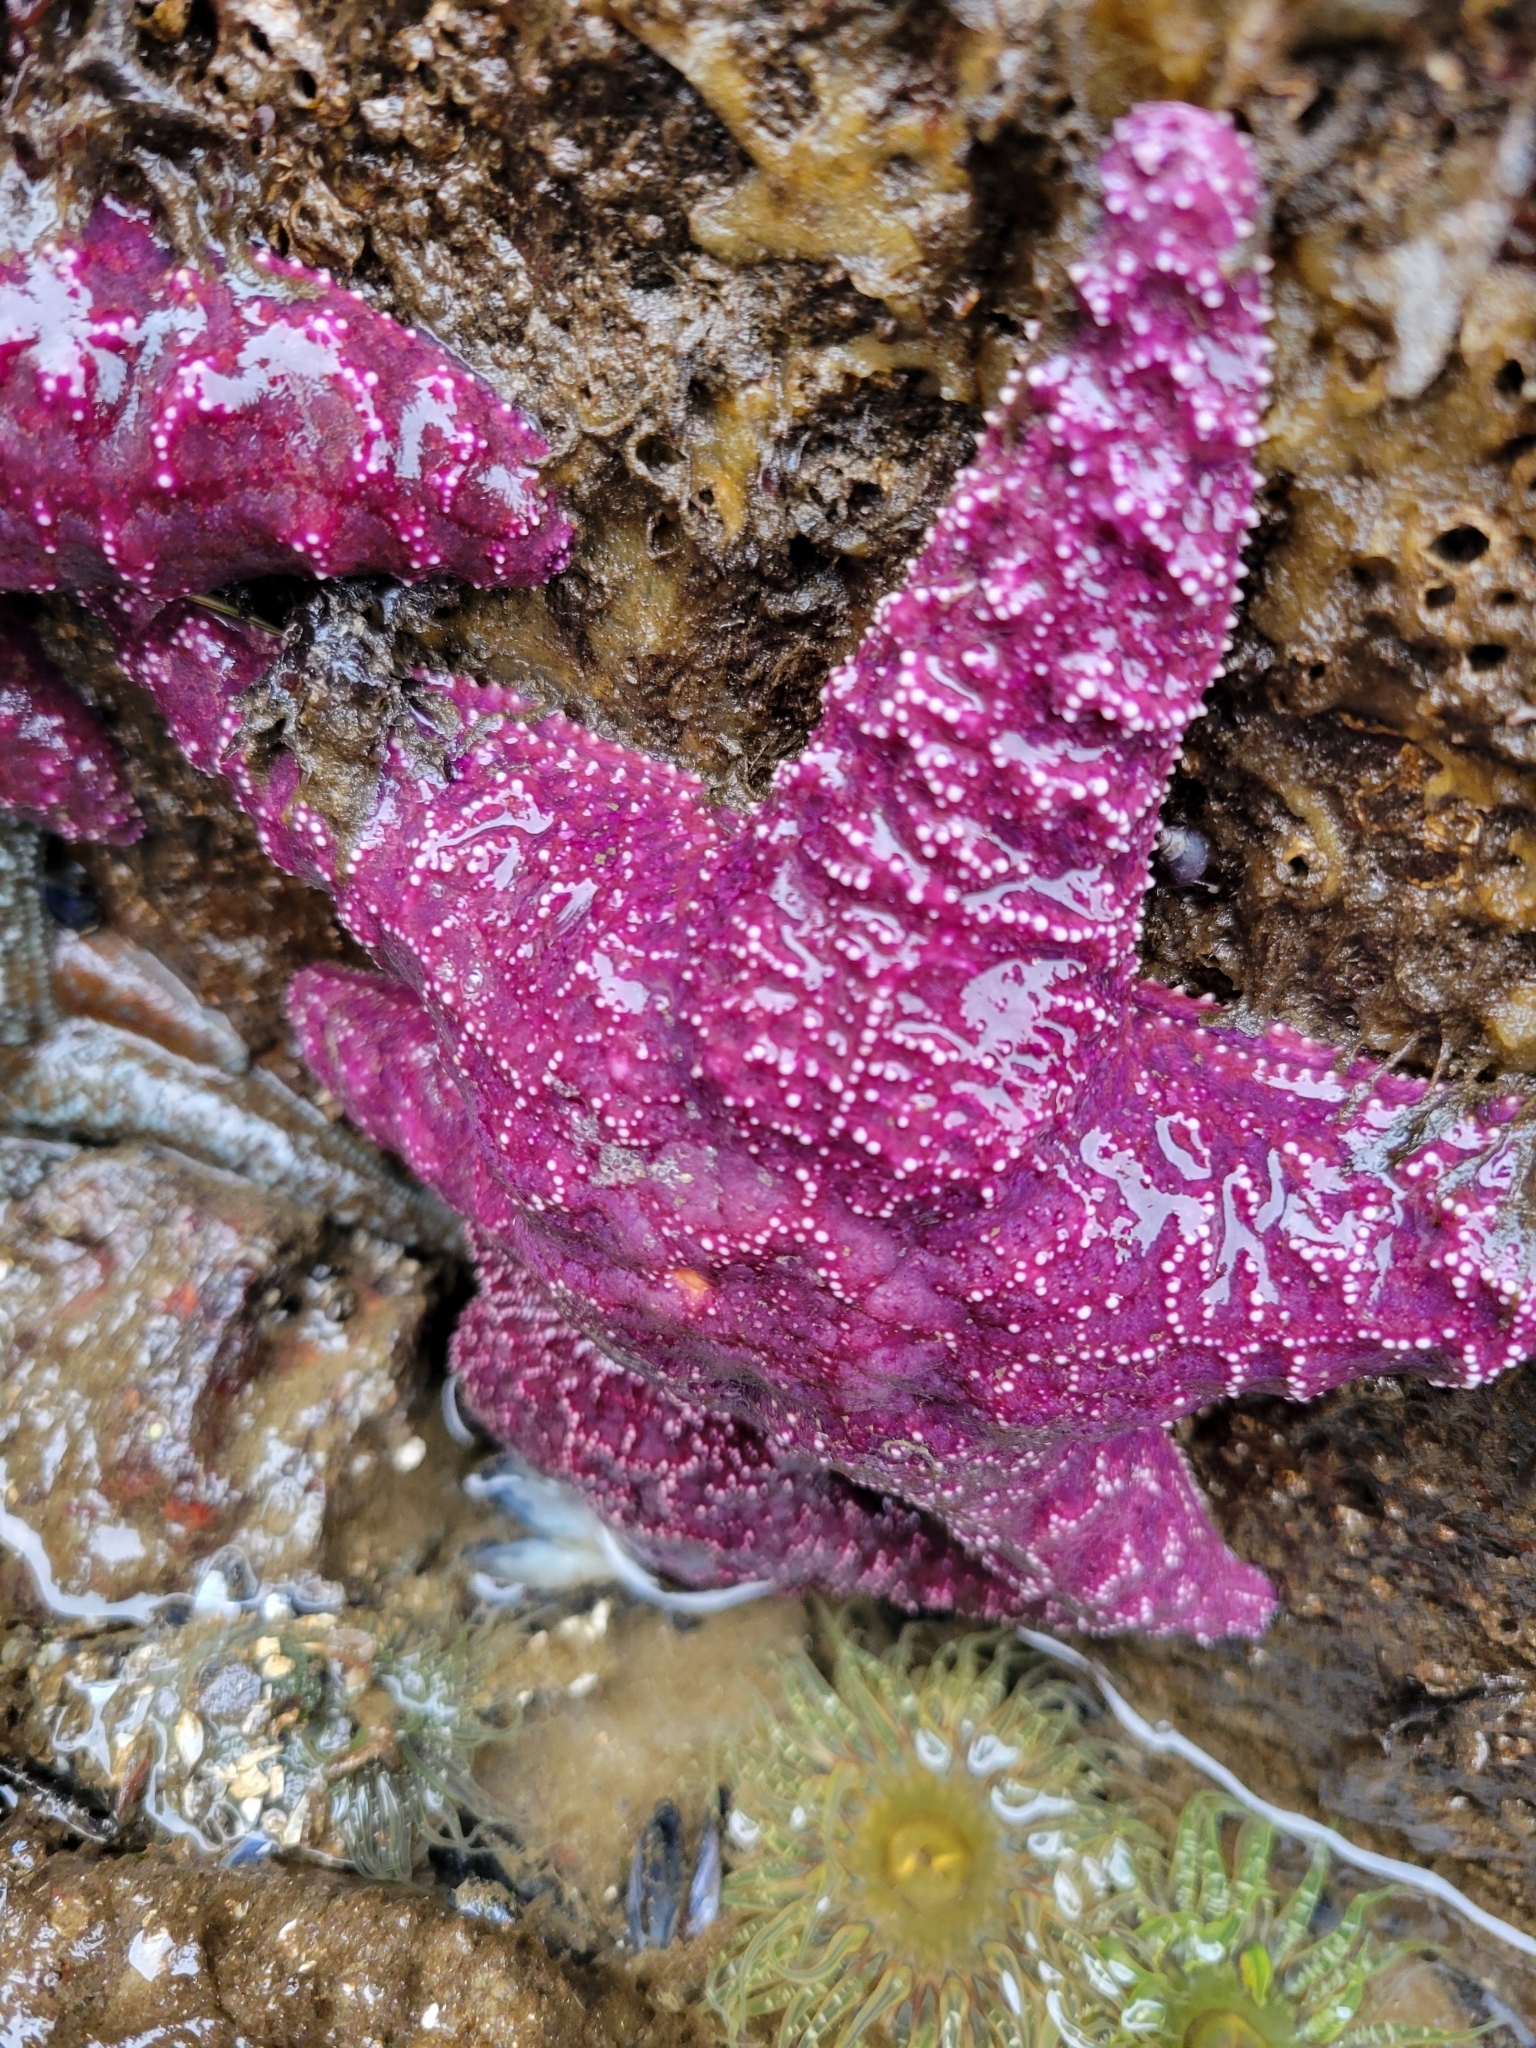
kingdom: Animalia
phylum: Echinodermata
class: Asteroidea
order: Forcipulatida
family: Asteriidae
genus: Pisaster
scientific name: Pisaster ochraceus
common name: Ochre stars
